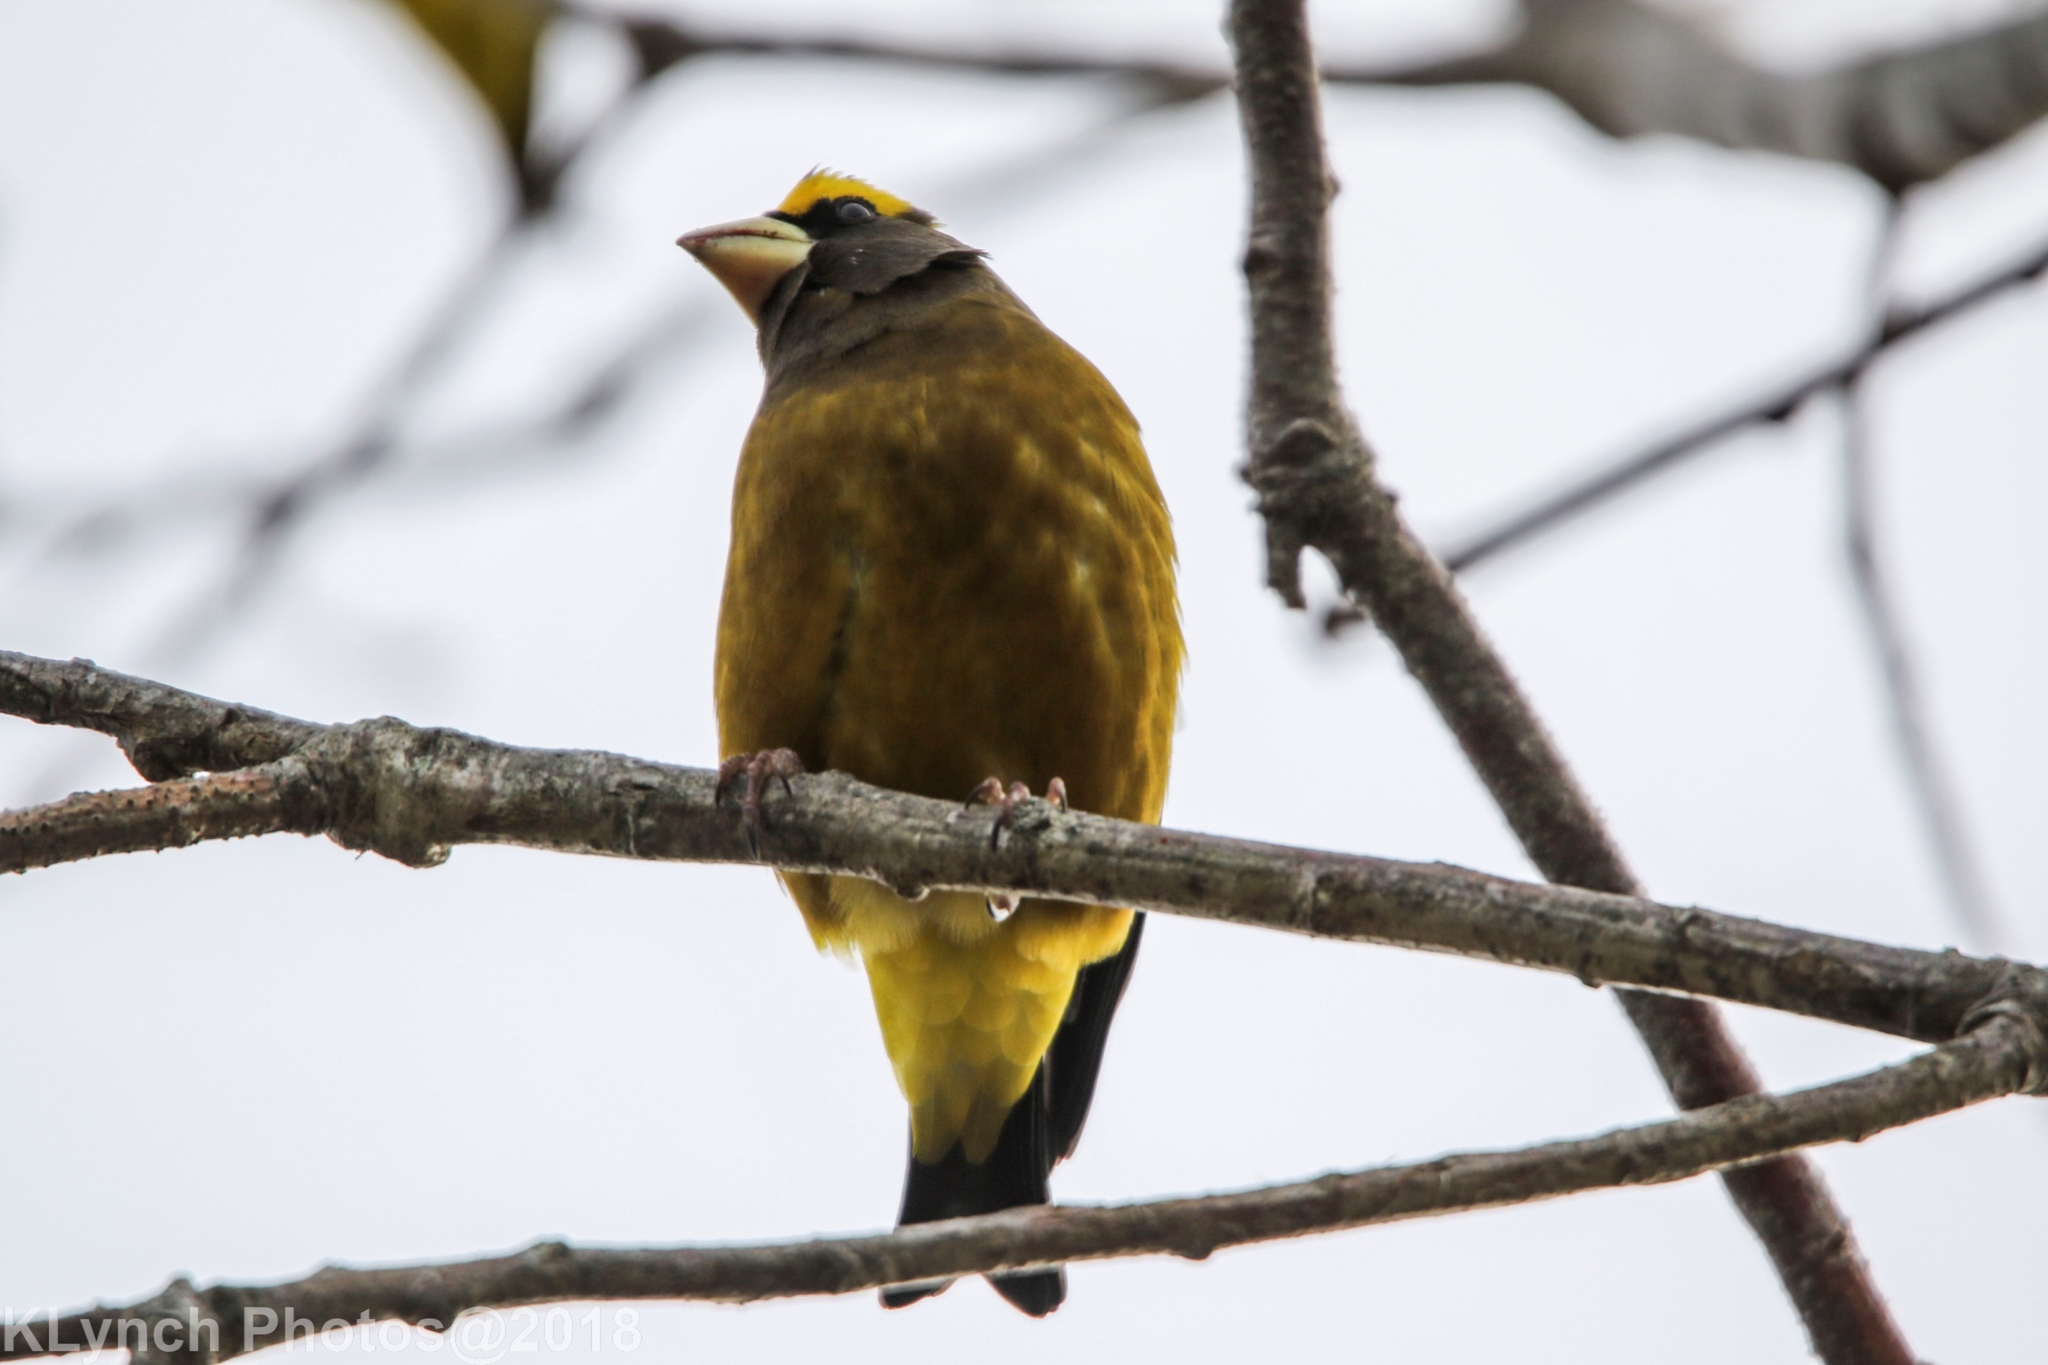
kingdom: Animalia
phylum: Chordata
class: Aves
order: Passeriformes
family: Fringillidae
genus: Hesperiphona
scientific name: Hesperiphona vespertina
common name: Evening grosbeak
